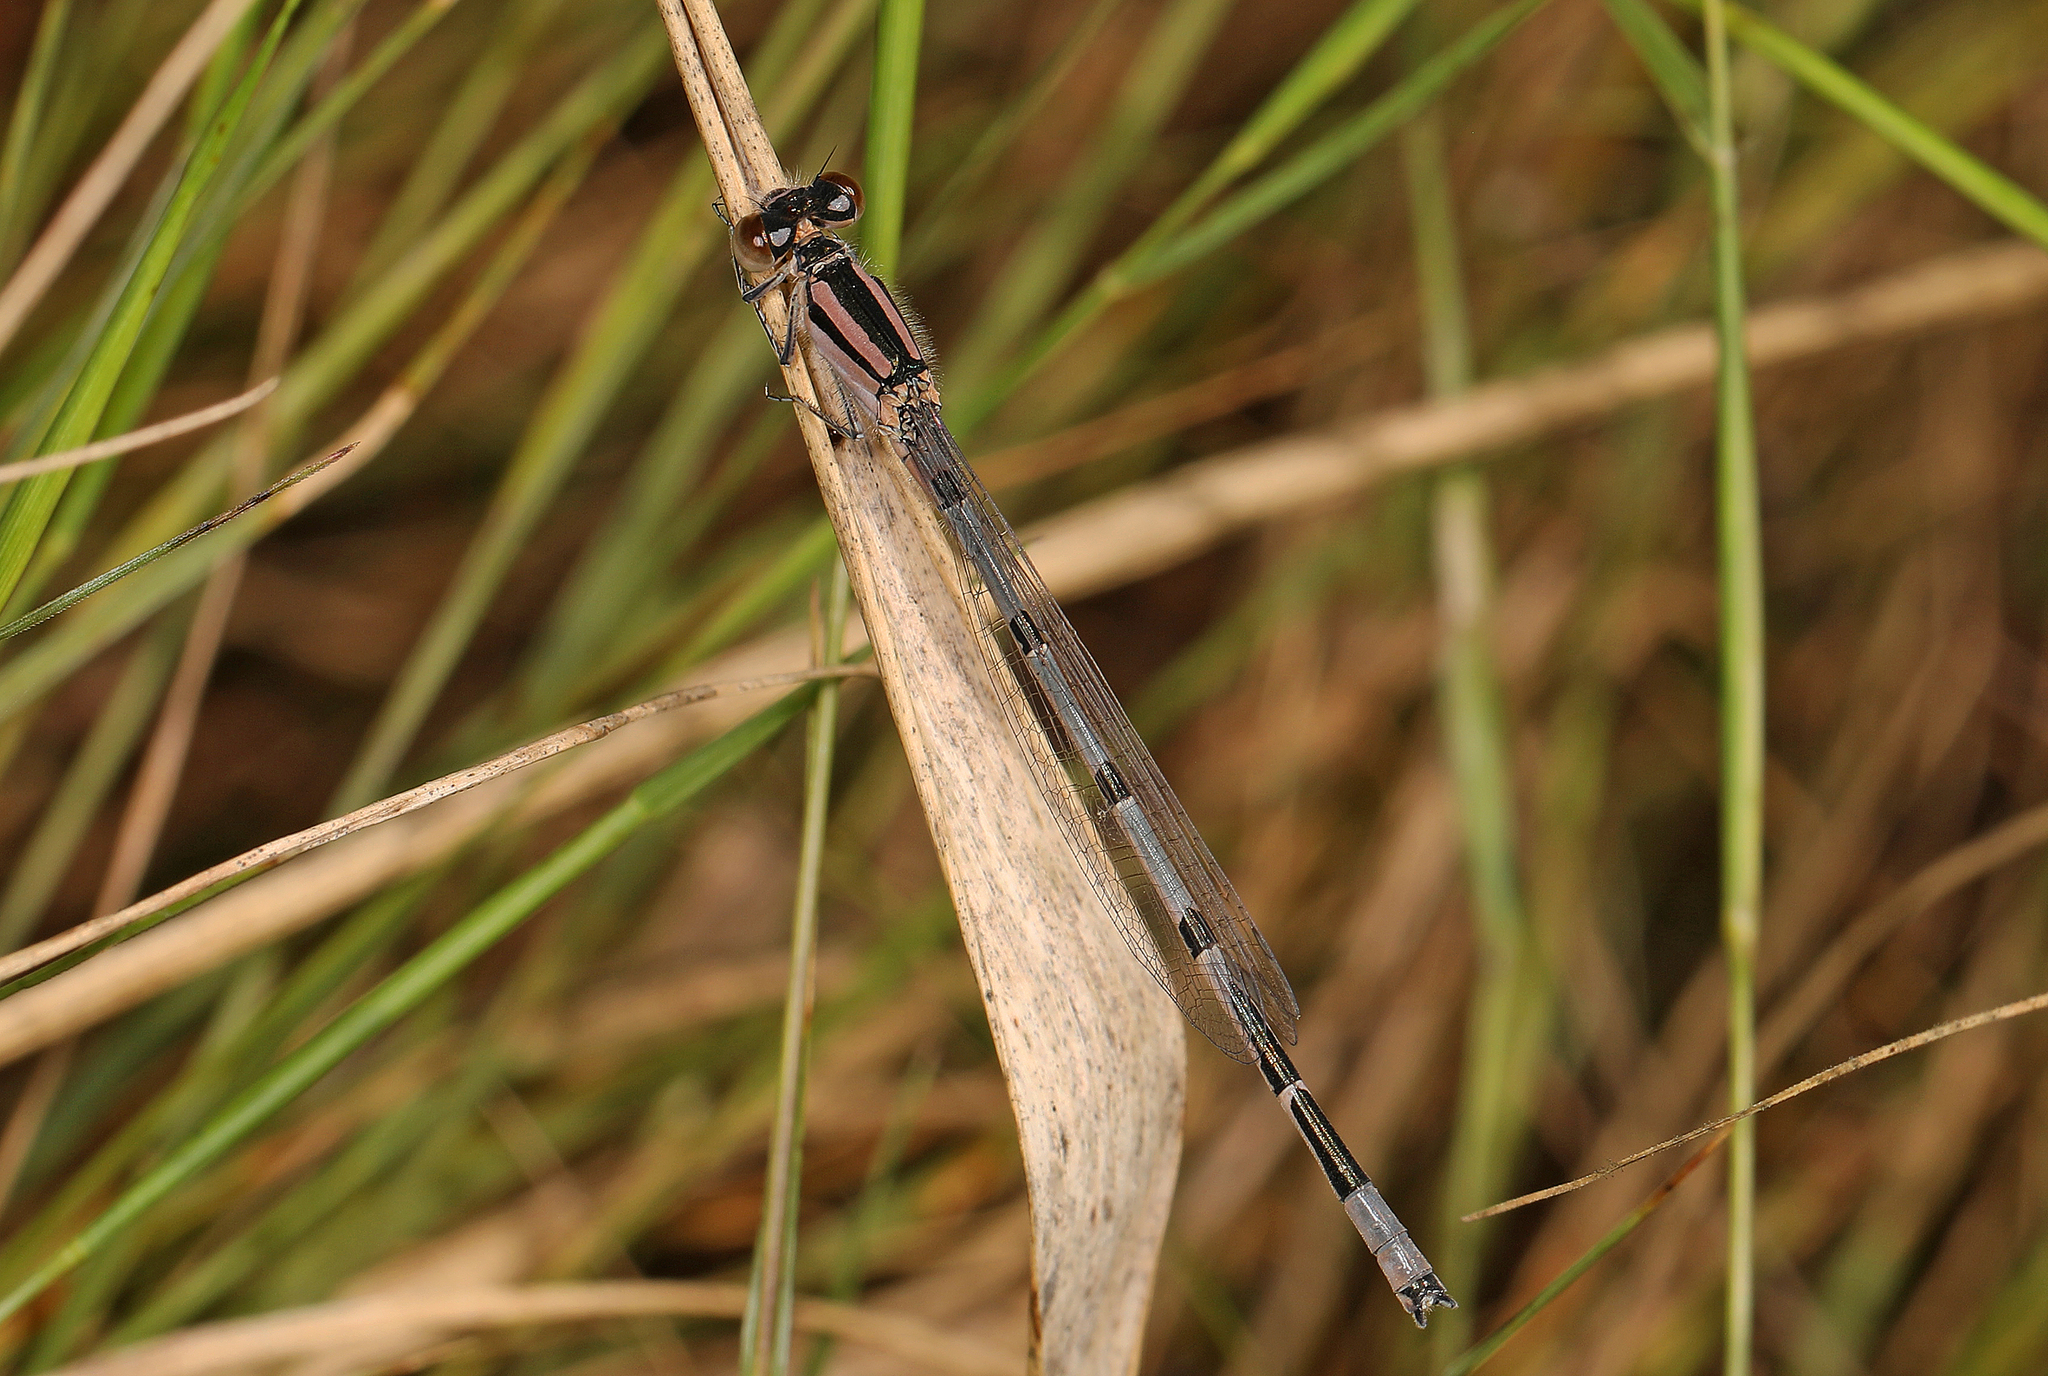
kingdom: Animalia
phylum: Arthropoda
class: Insecta
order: Odonata
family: Coenagrionidae
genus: Enallagma
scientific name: Enallagma civile
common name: Damselfly
